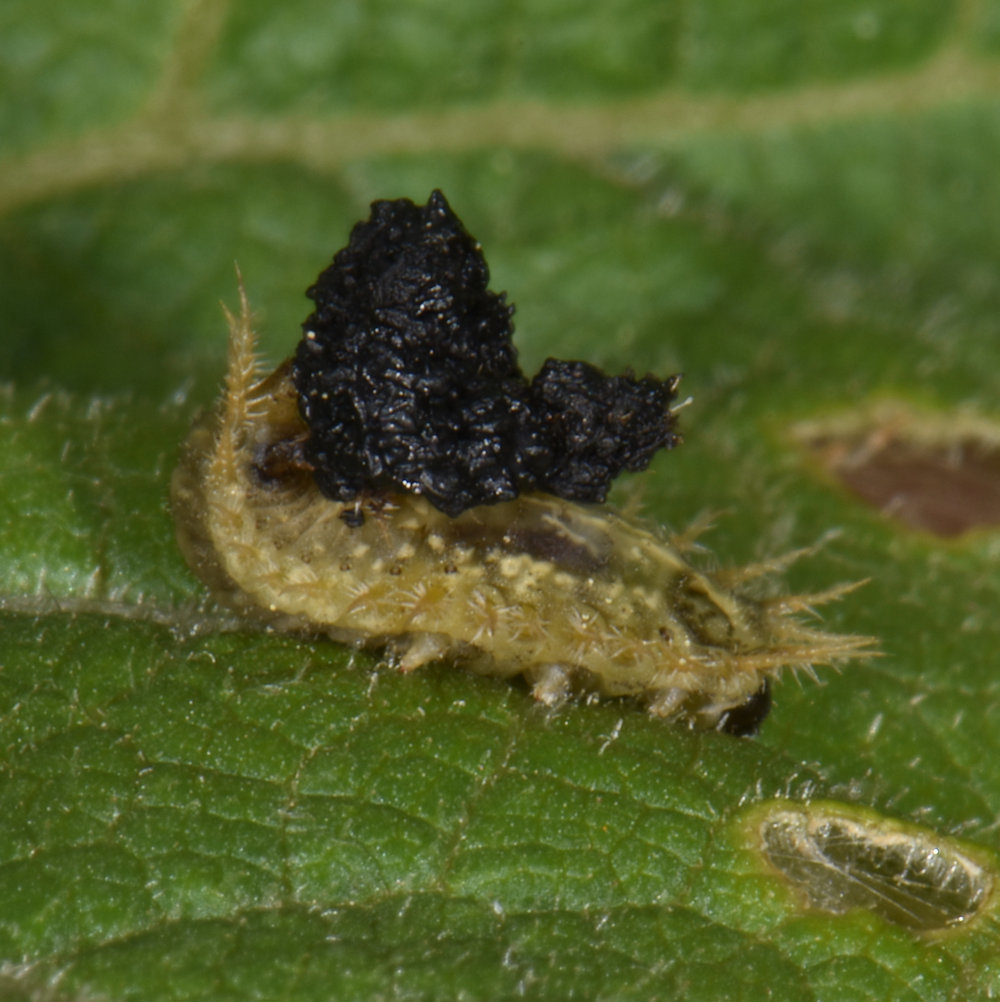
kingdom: Animalia
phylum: Arthropoda
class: Insecta
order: Coleoptera
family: Chrysomelidae
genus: Cassida
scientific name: Cassida rubiginosa
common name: Thistle tortoise beetle
